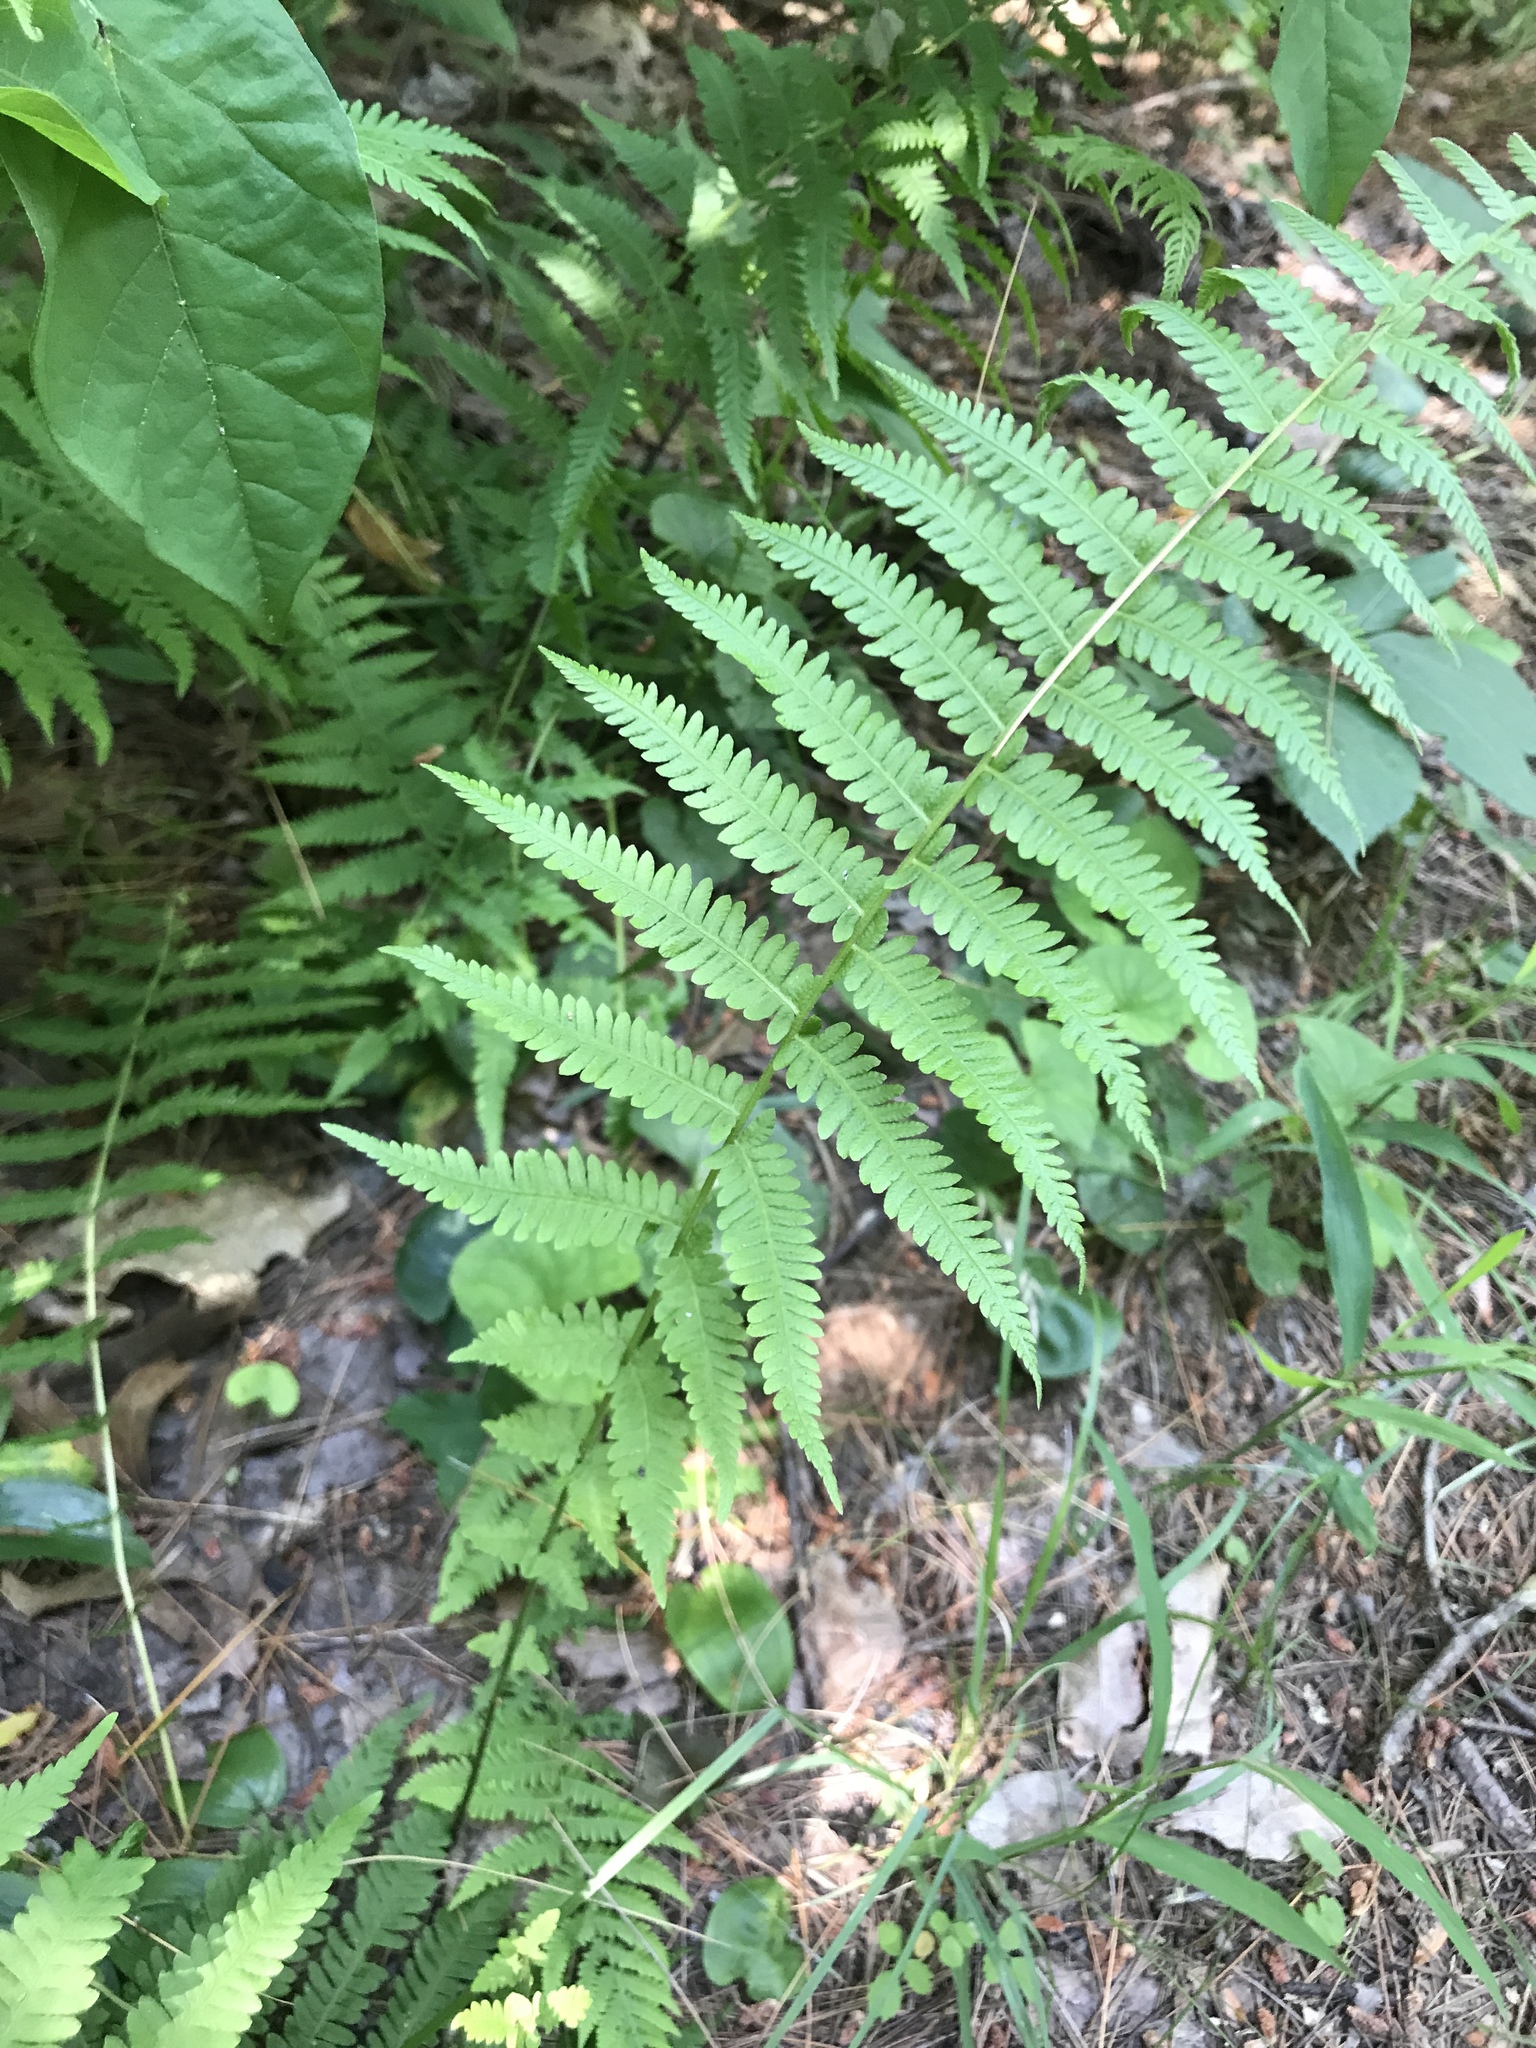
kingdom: Plantae
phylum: Tracheophyta
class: Polypodiopsida
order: Polypodiales
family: Thelypteridaceae
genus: Amauropelta
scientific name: Amauropelta noveboracensis
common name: New york fern
